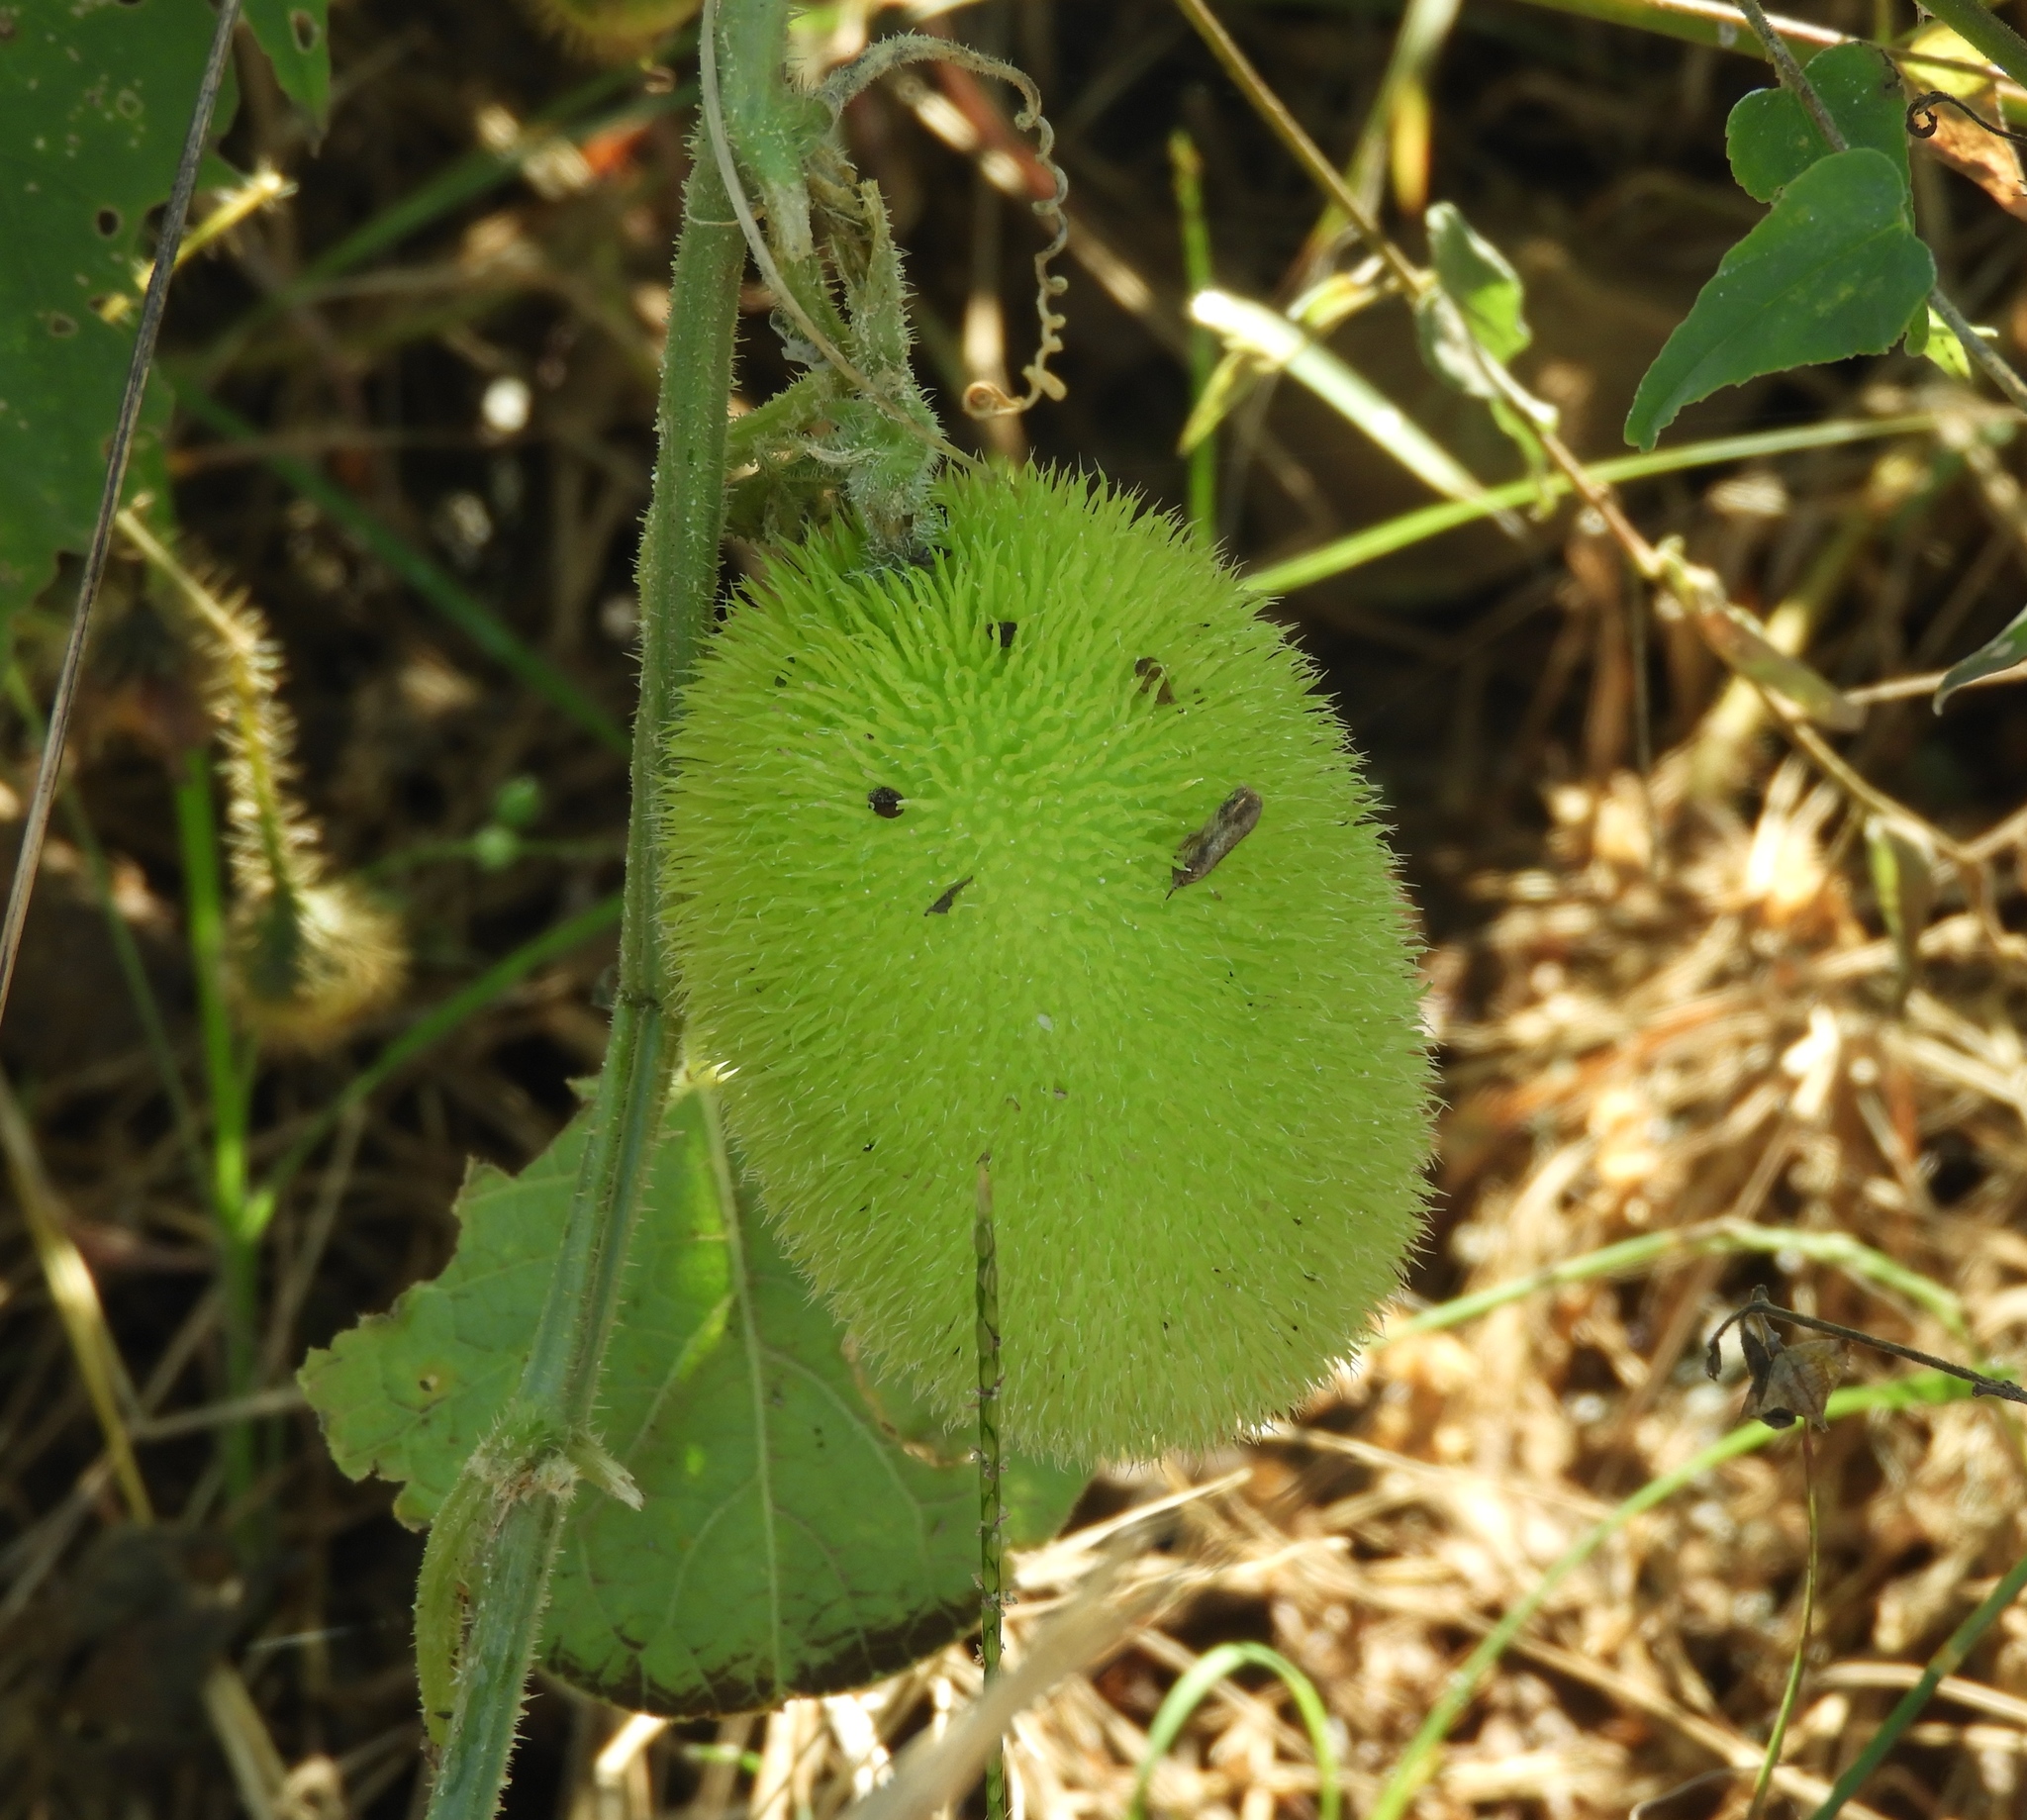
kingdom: Plantae
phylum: Tracheophyta
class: Magnoliopsida
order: Cucurbitales
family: Cucurbitaceae
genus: Cucumis
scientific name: Cucumis dipsaceus
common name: Hedgehog gourd
